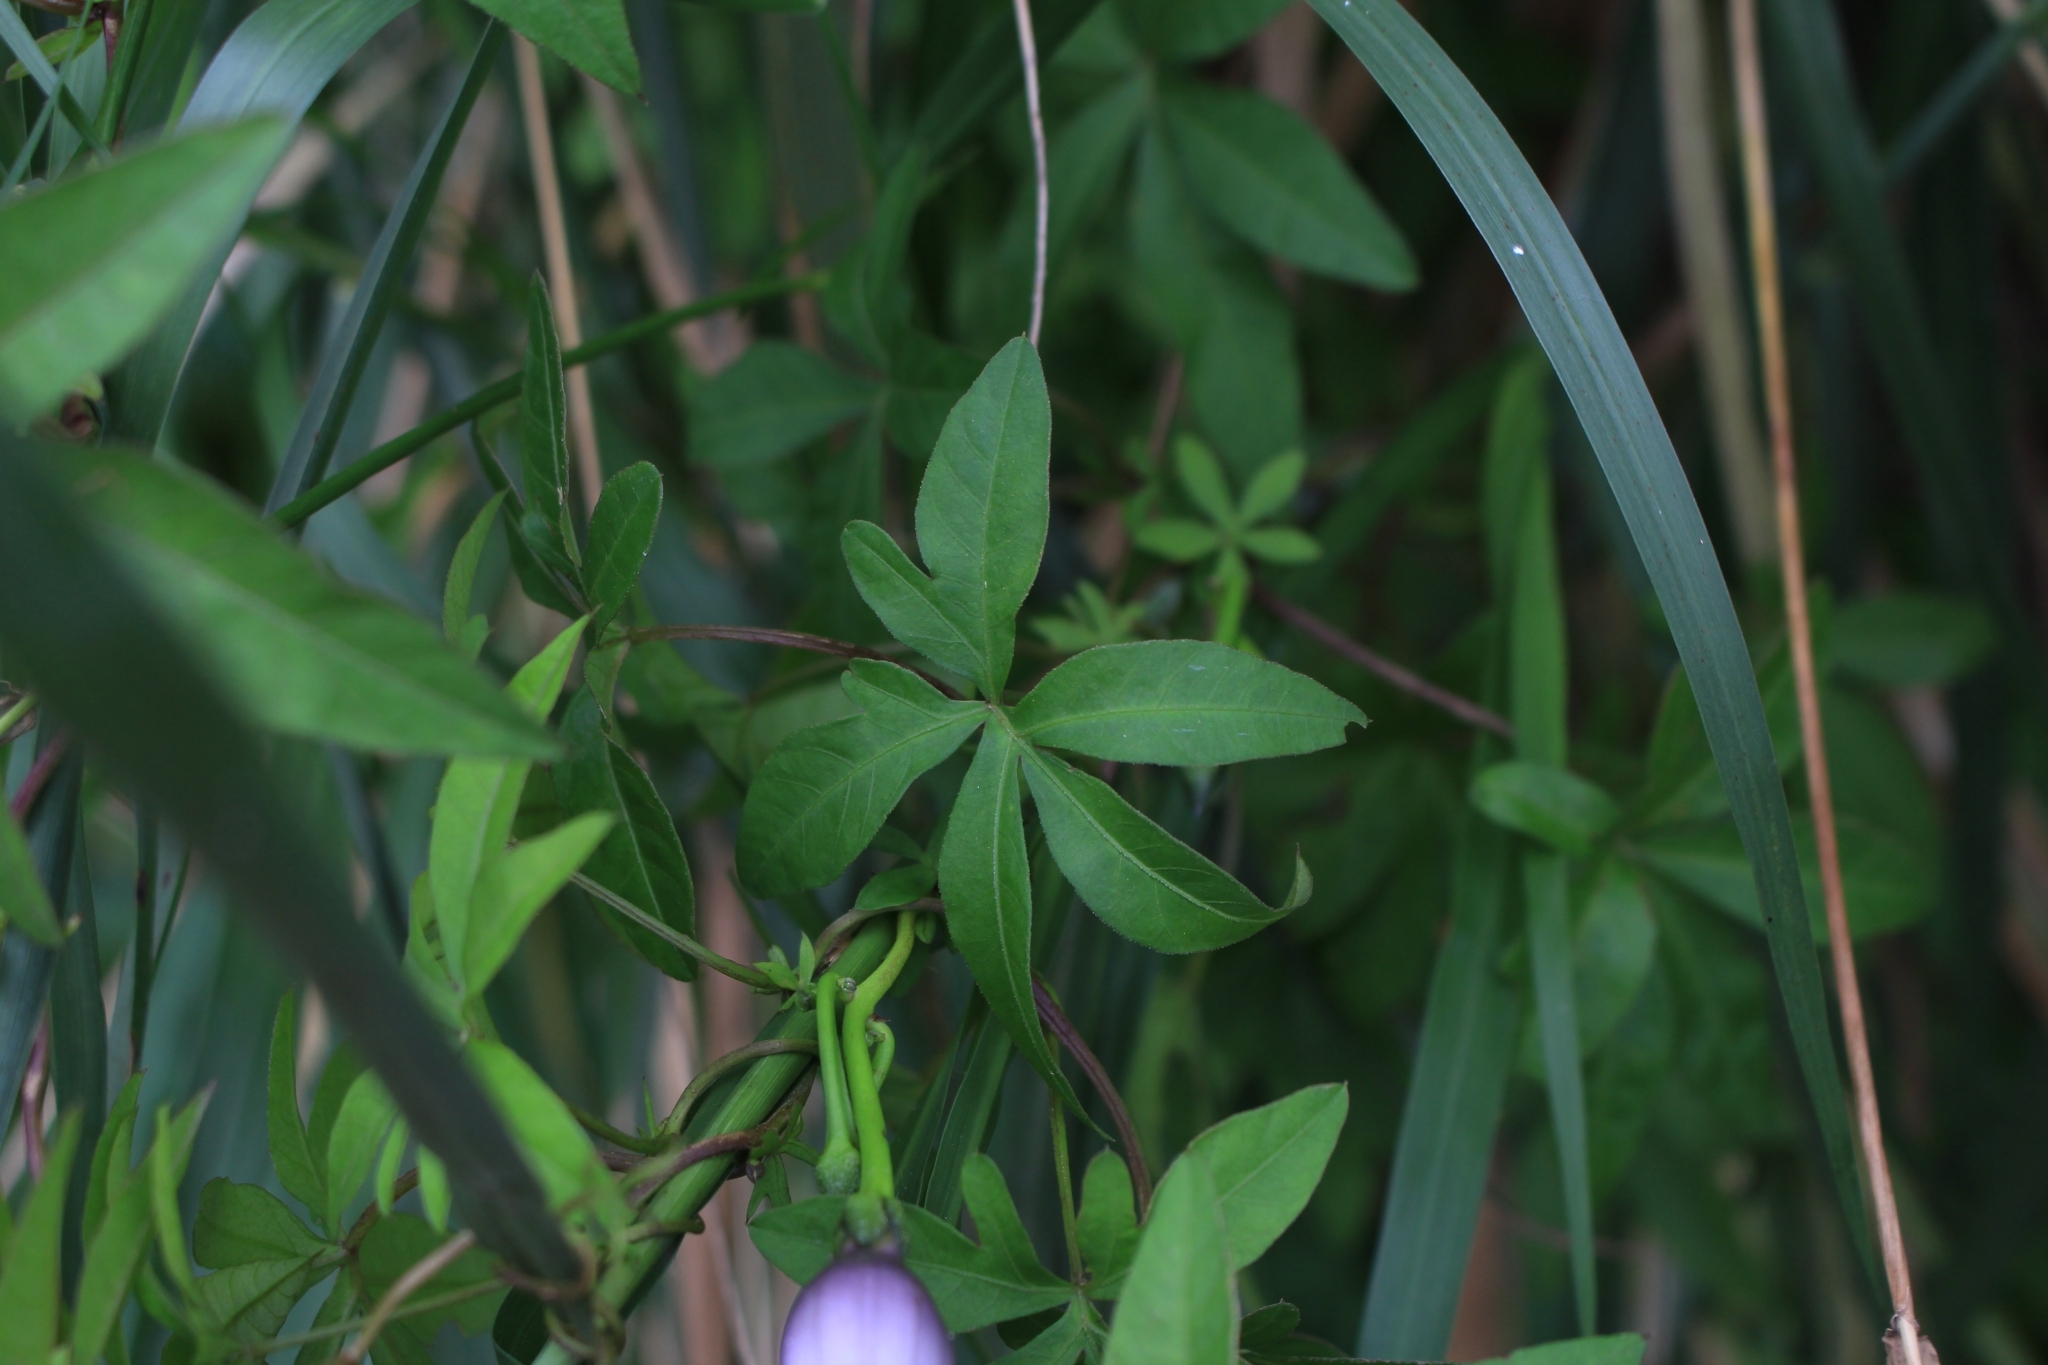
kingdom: Plantae
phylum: Tracheophyta
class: Magnoliopsida
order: Solanales
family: Convolvulaceae
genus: Ipomoea
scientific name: Ipomoea cairica
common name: Mile a minute vine
